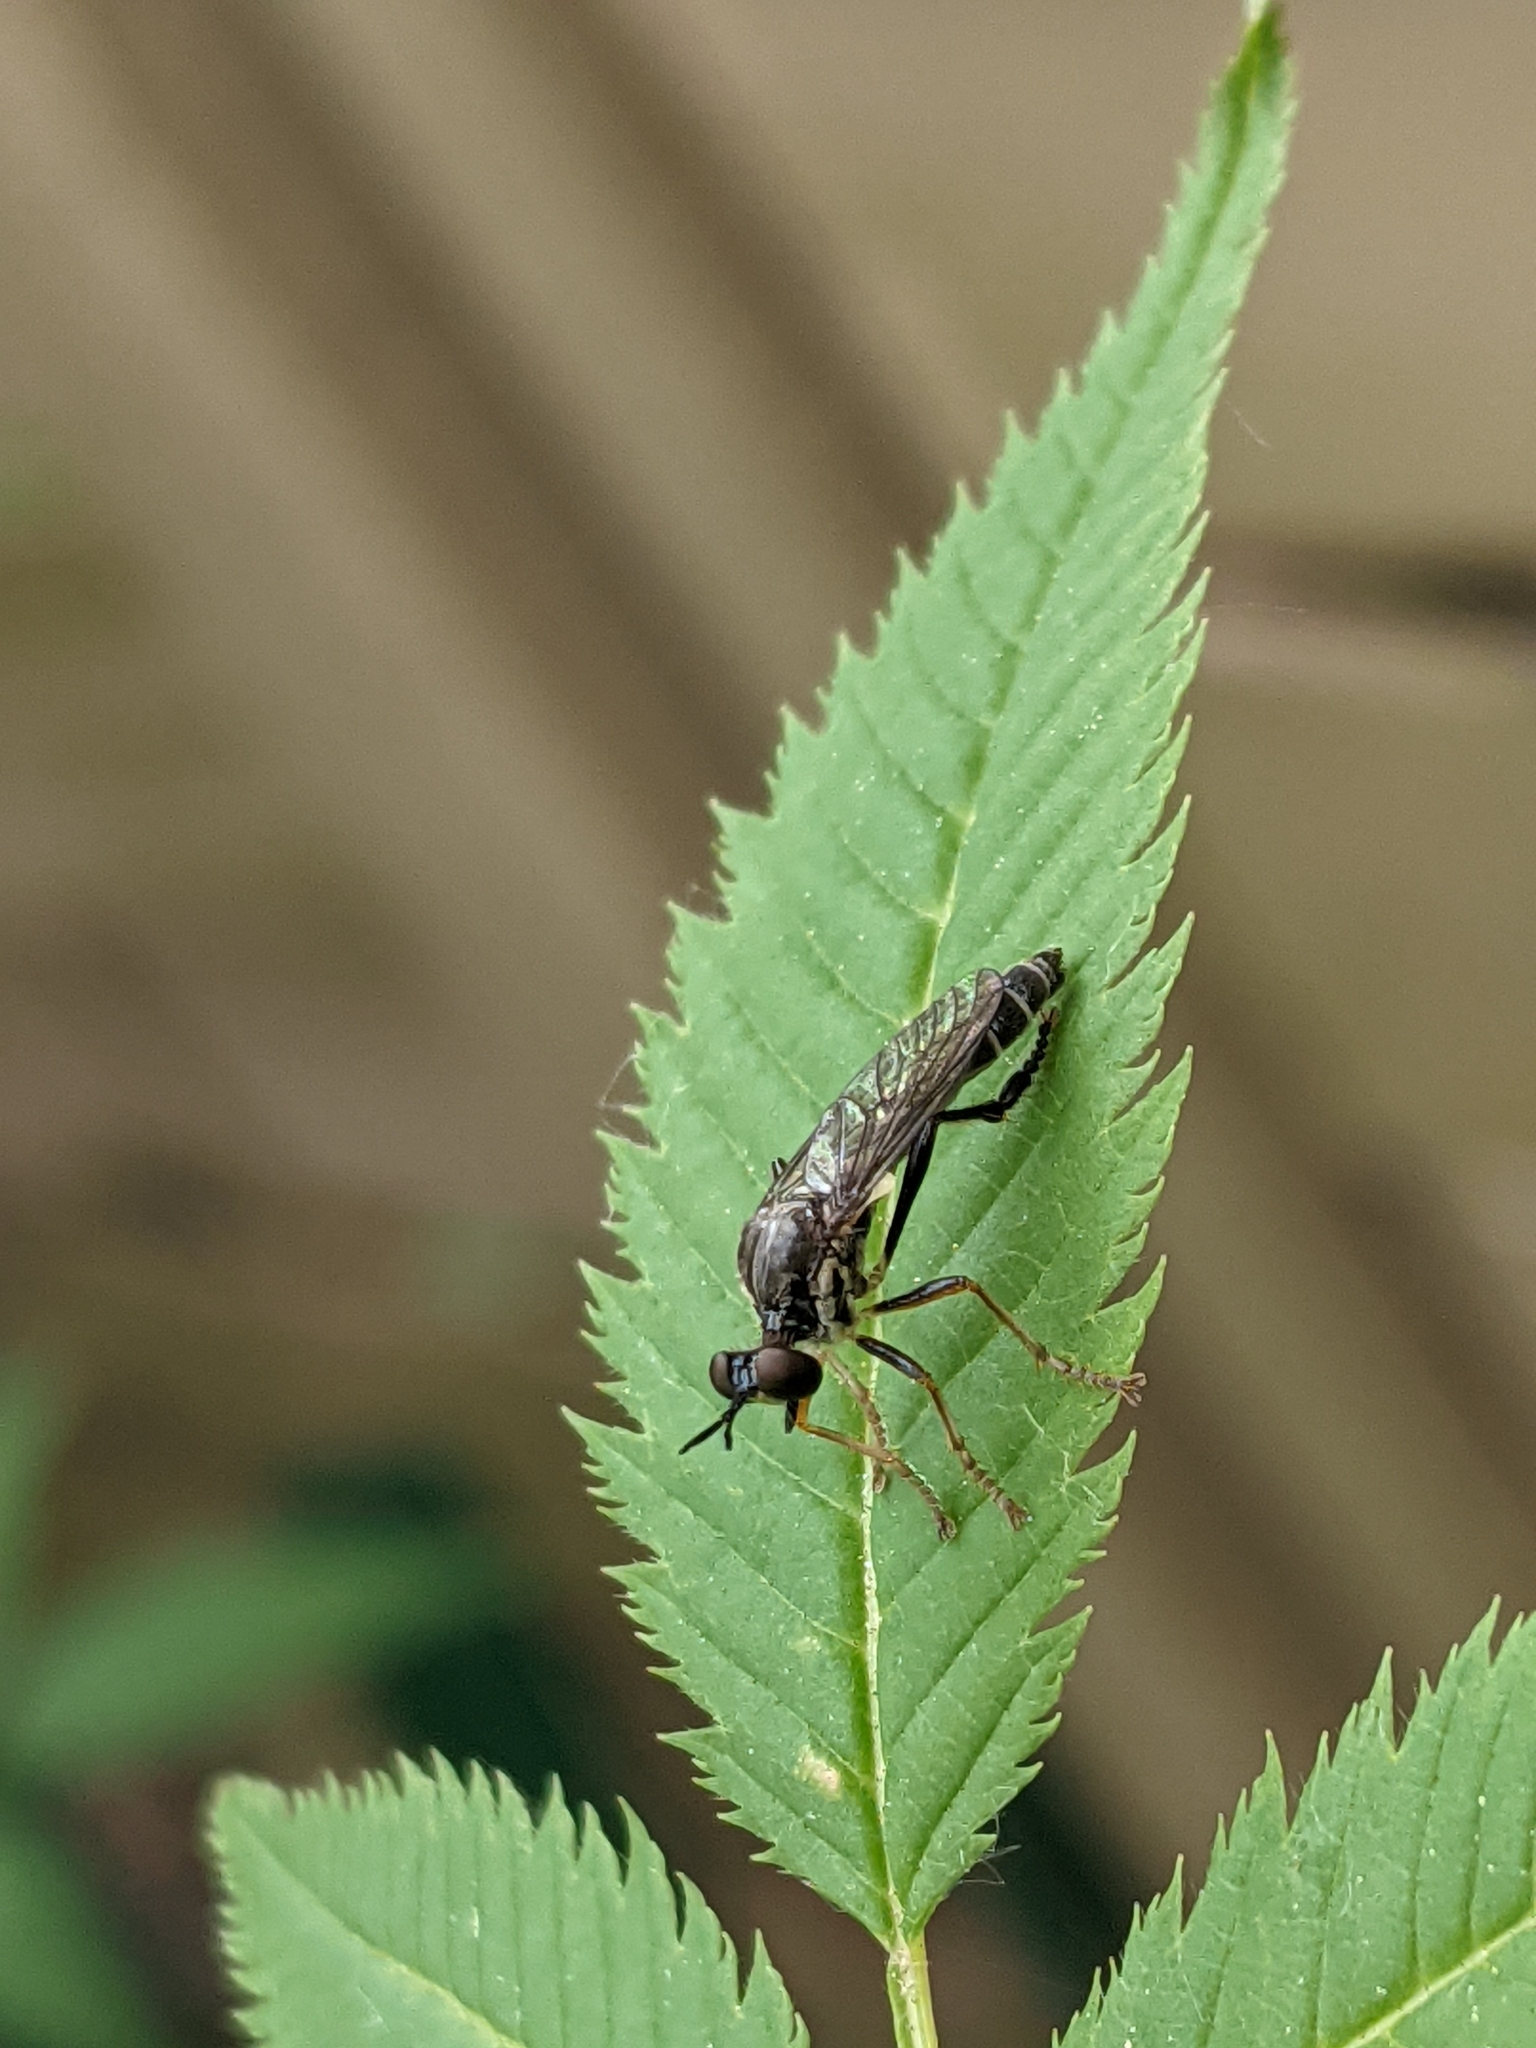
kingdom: Animalia
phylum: Arthropoda
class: Insecta
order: Diptera
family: Asilidae
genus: Dioctria
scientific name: Dioctria hyalipennis
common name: Stripe-legged robberfly
